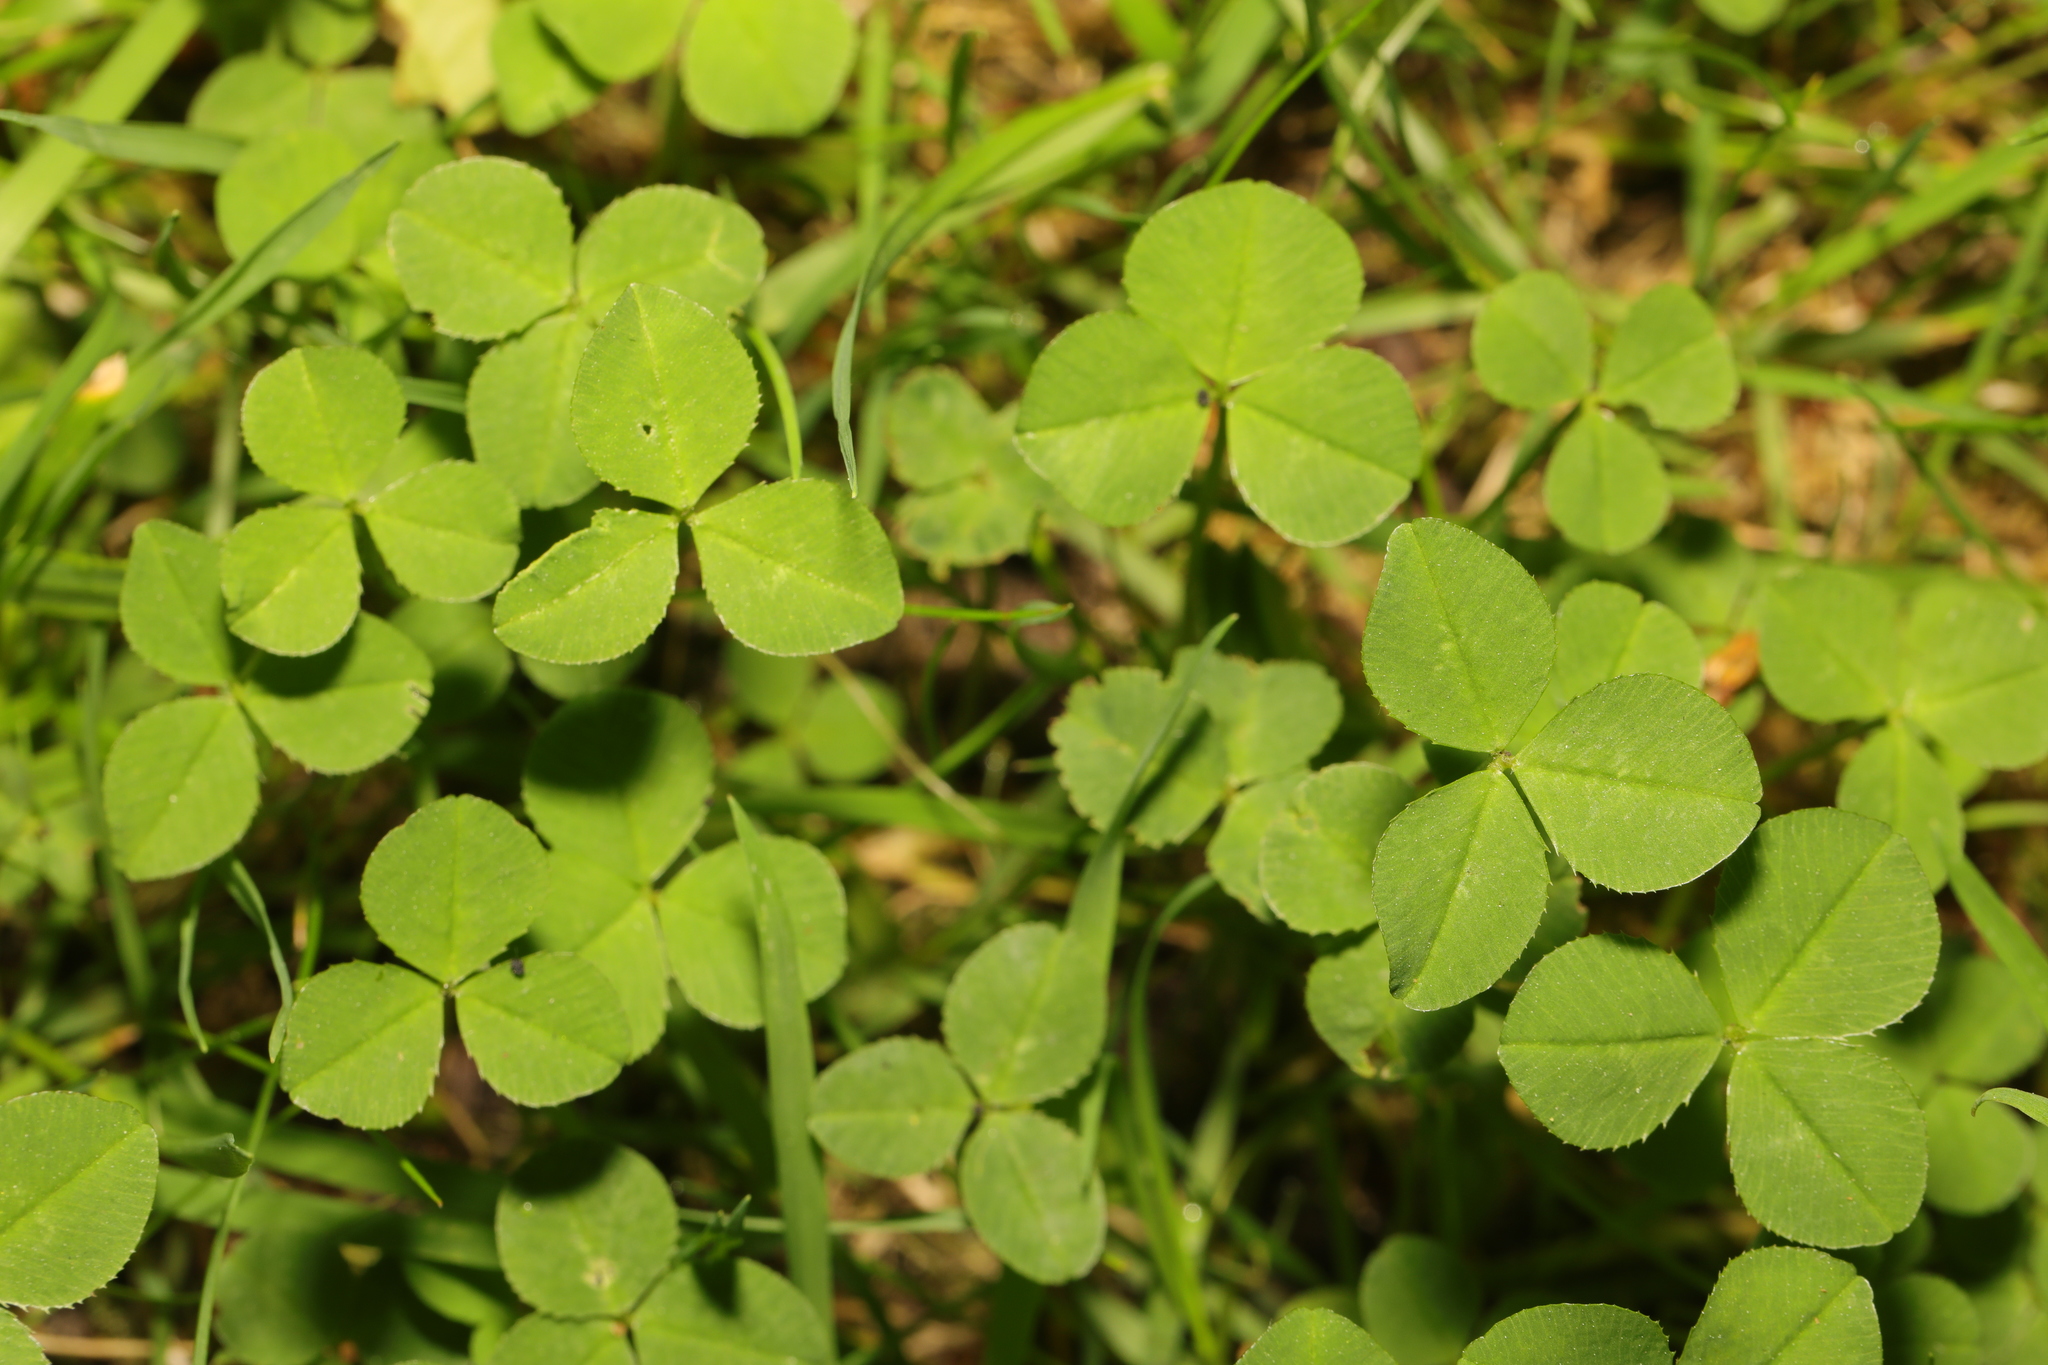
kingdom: Plantae
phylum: Tracheophyta
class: Magnoliopsida
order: Fabales
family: Fabaceae
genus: Trifolium
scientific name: Trifolium repens
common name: White clover
